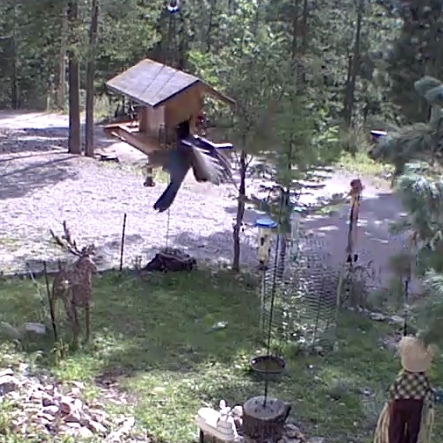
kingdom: Animalia
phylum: Chordata
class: Aves
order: Passeriformes
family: Corvidae
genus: Cyanocitta
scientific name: Cyanocitta stelleri
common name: Steller's jay
